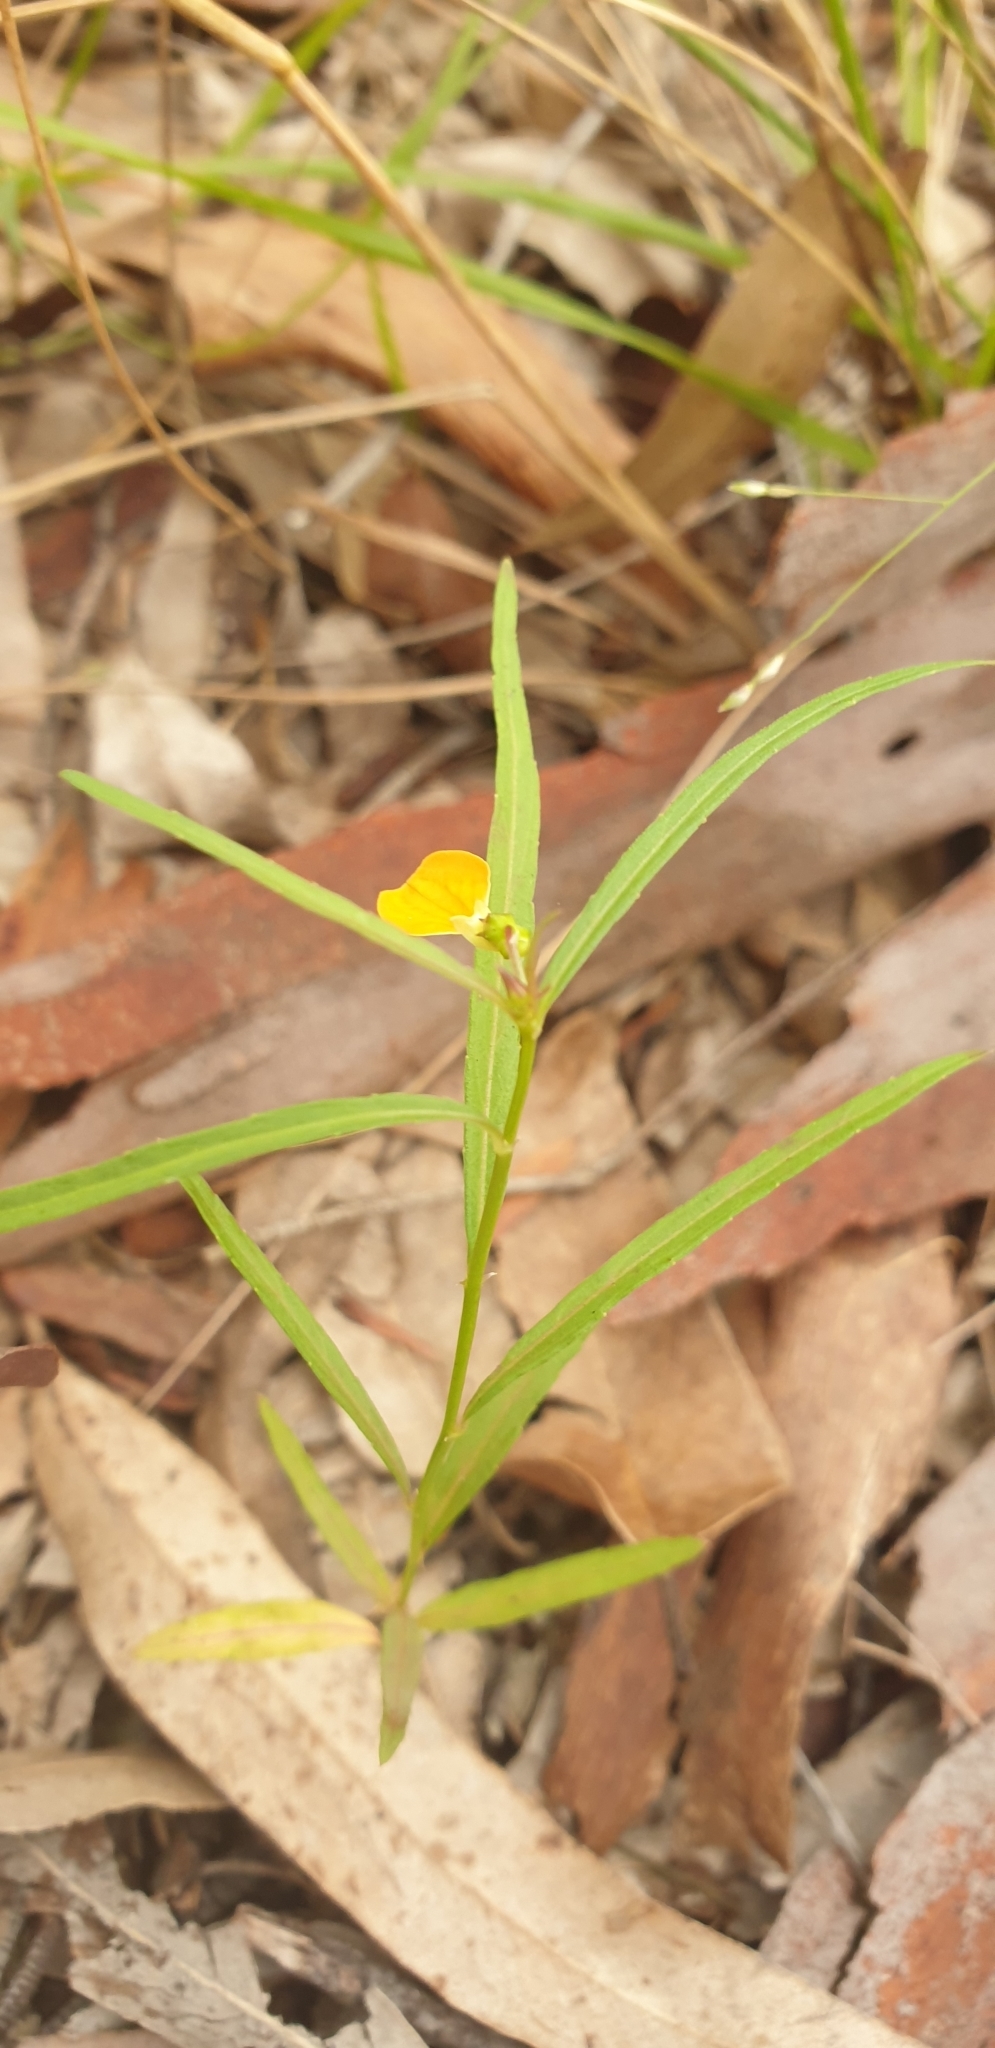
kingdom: Plantae
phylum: Tracheophyta
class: Magnoliopsida
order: Malpighiales
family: Violaceae
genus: Pigea
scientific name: Pigea stellarioides
